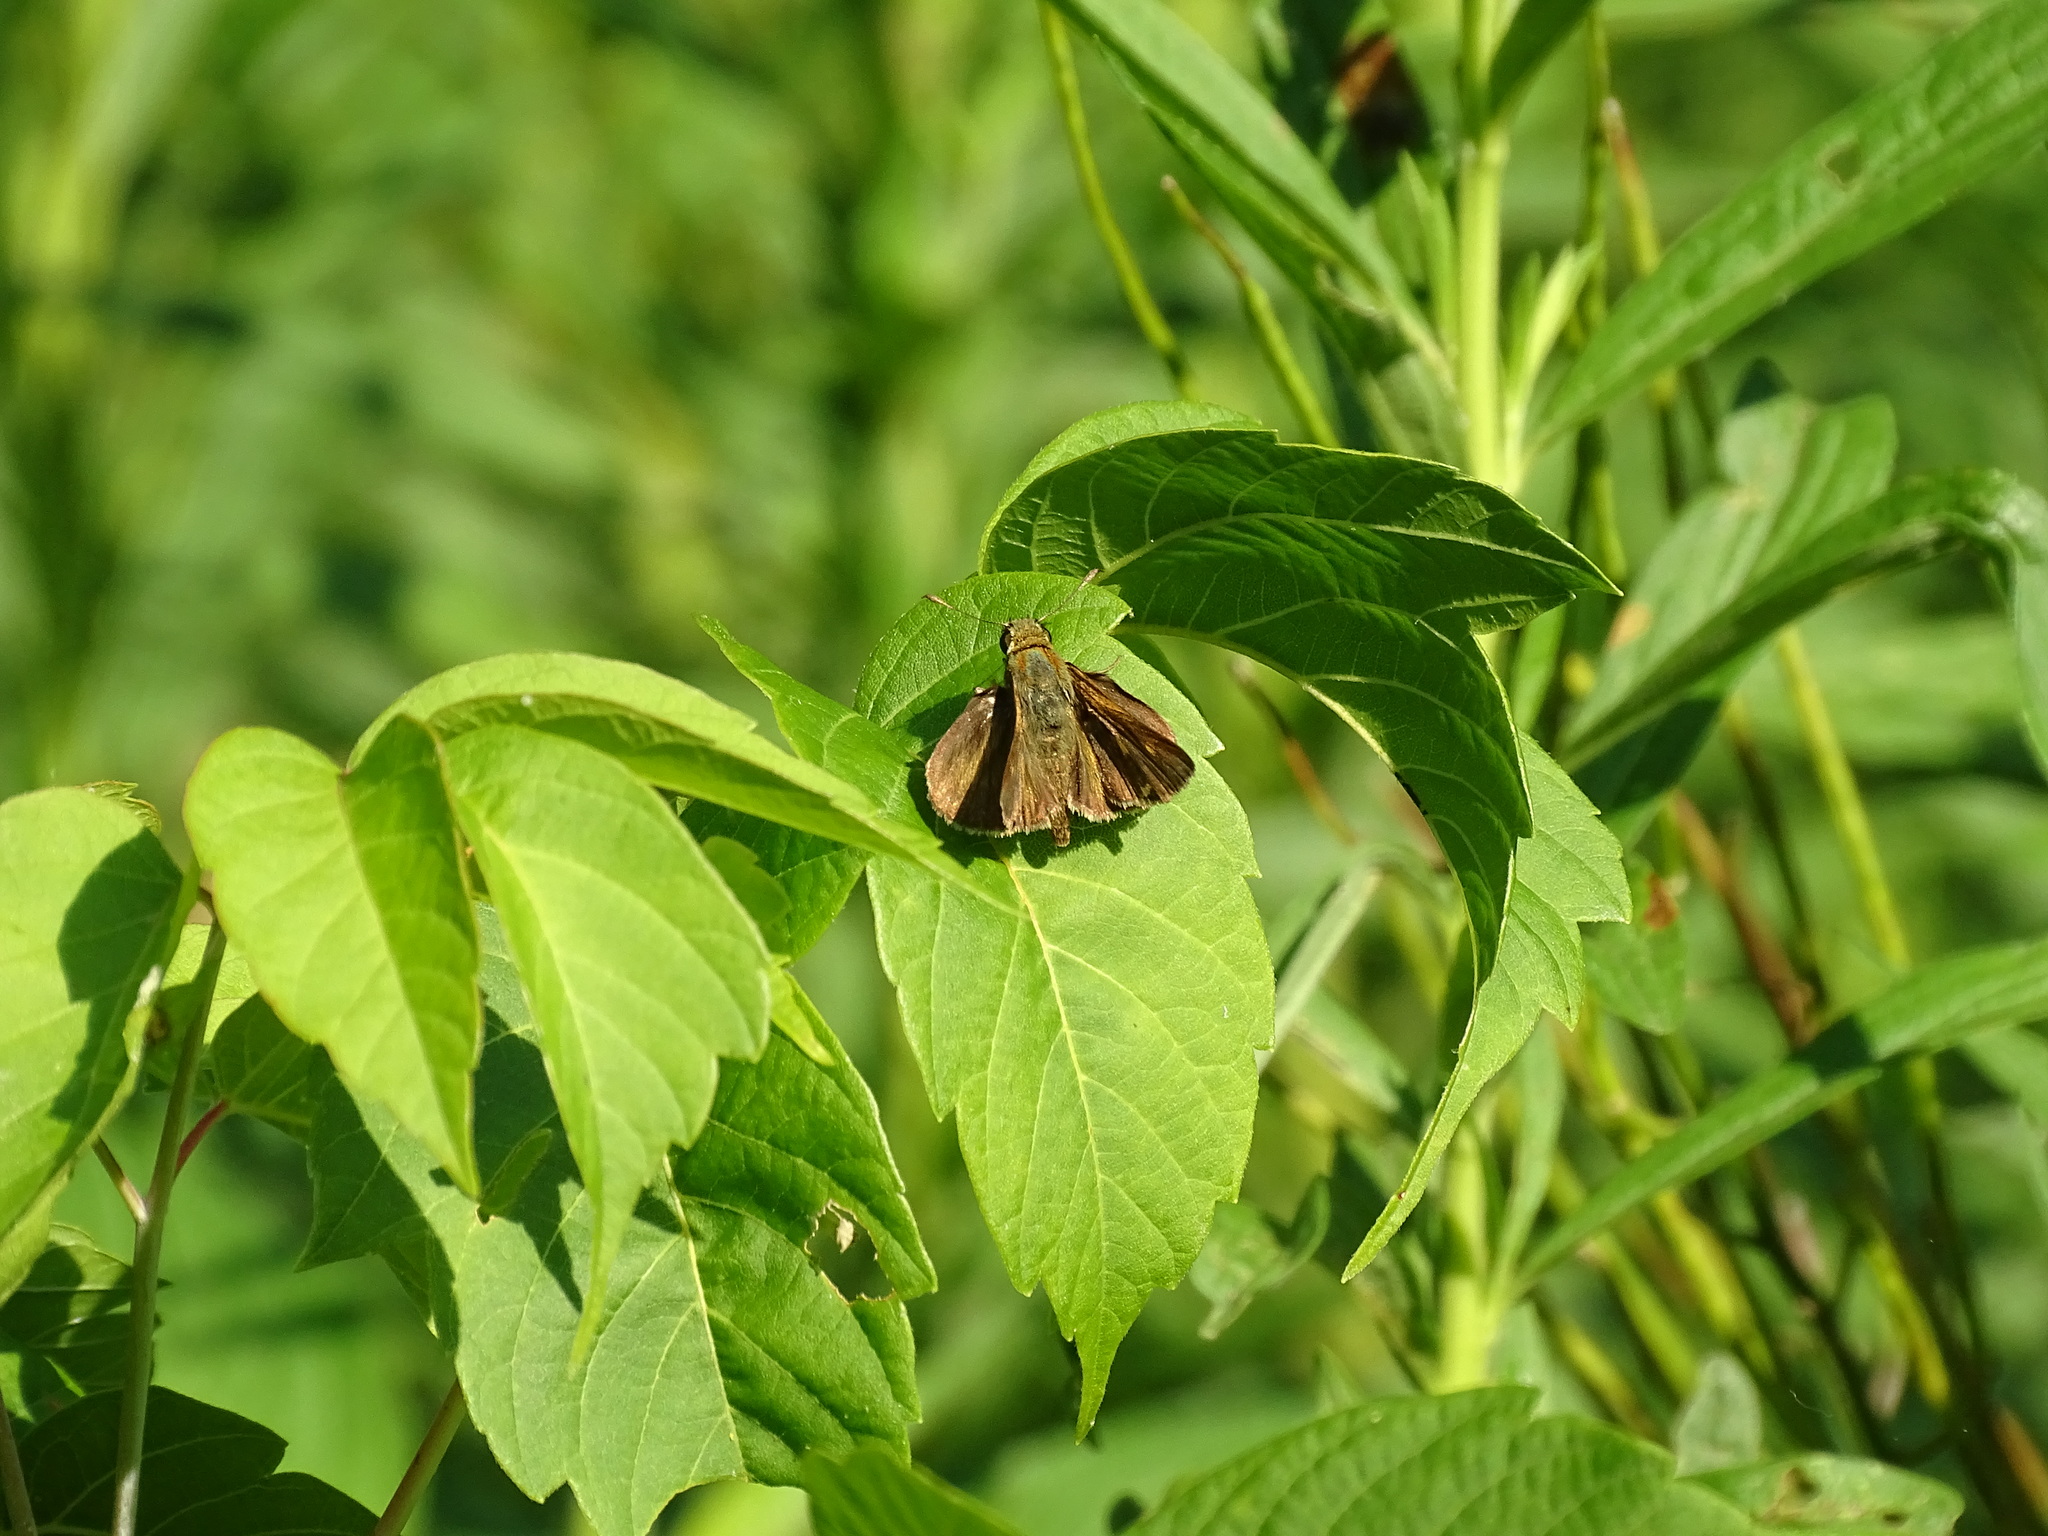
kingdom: Plantae
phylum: Tracheophyta
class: Magnoliopsida
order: Lamiales
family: Lamiaceae
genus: Monarda
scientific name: Monarda fistulosa
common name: Purple beebalm
